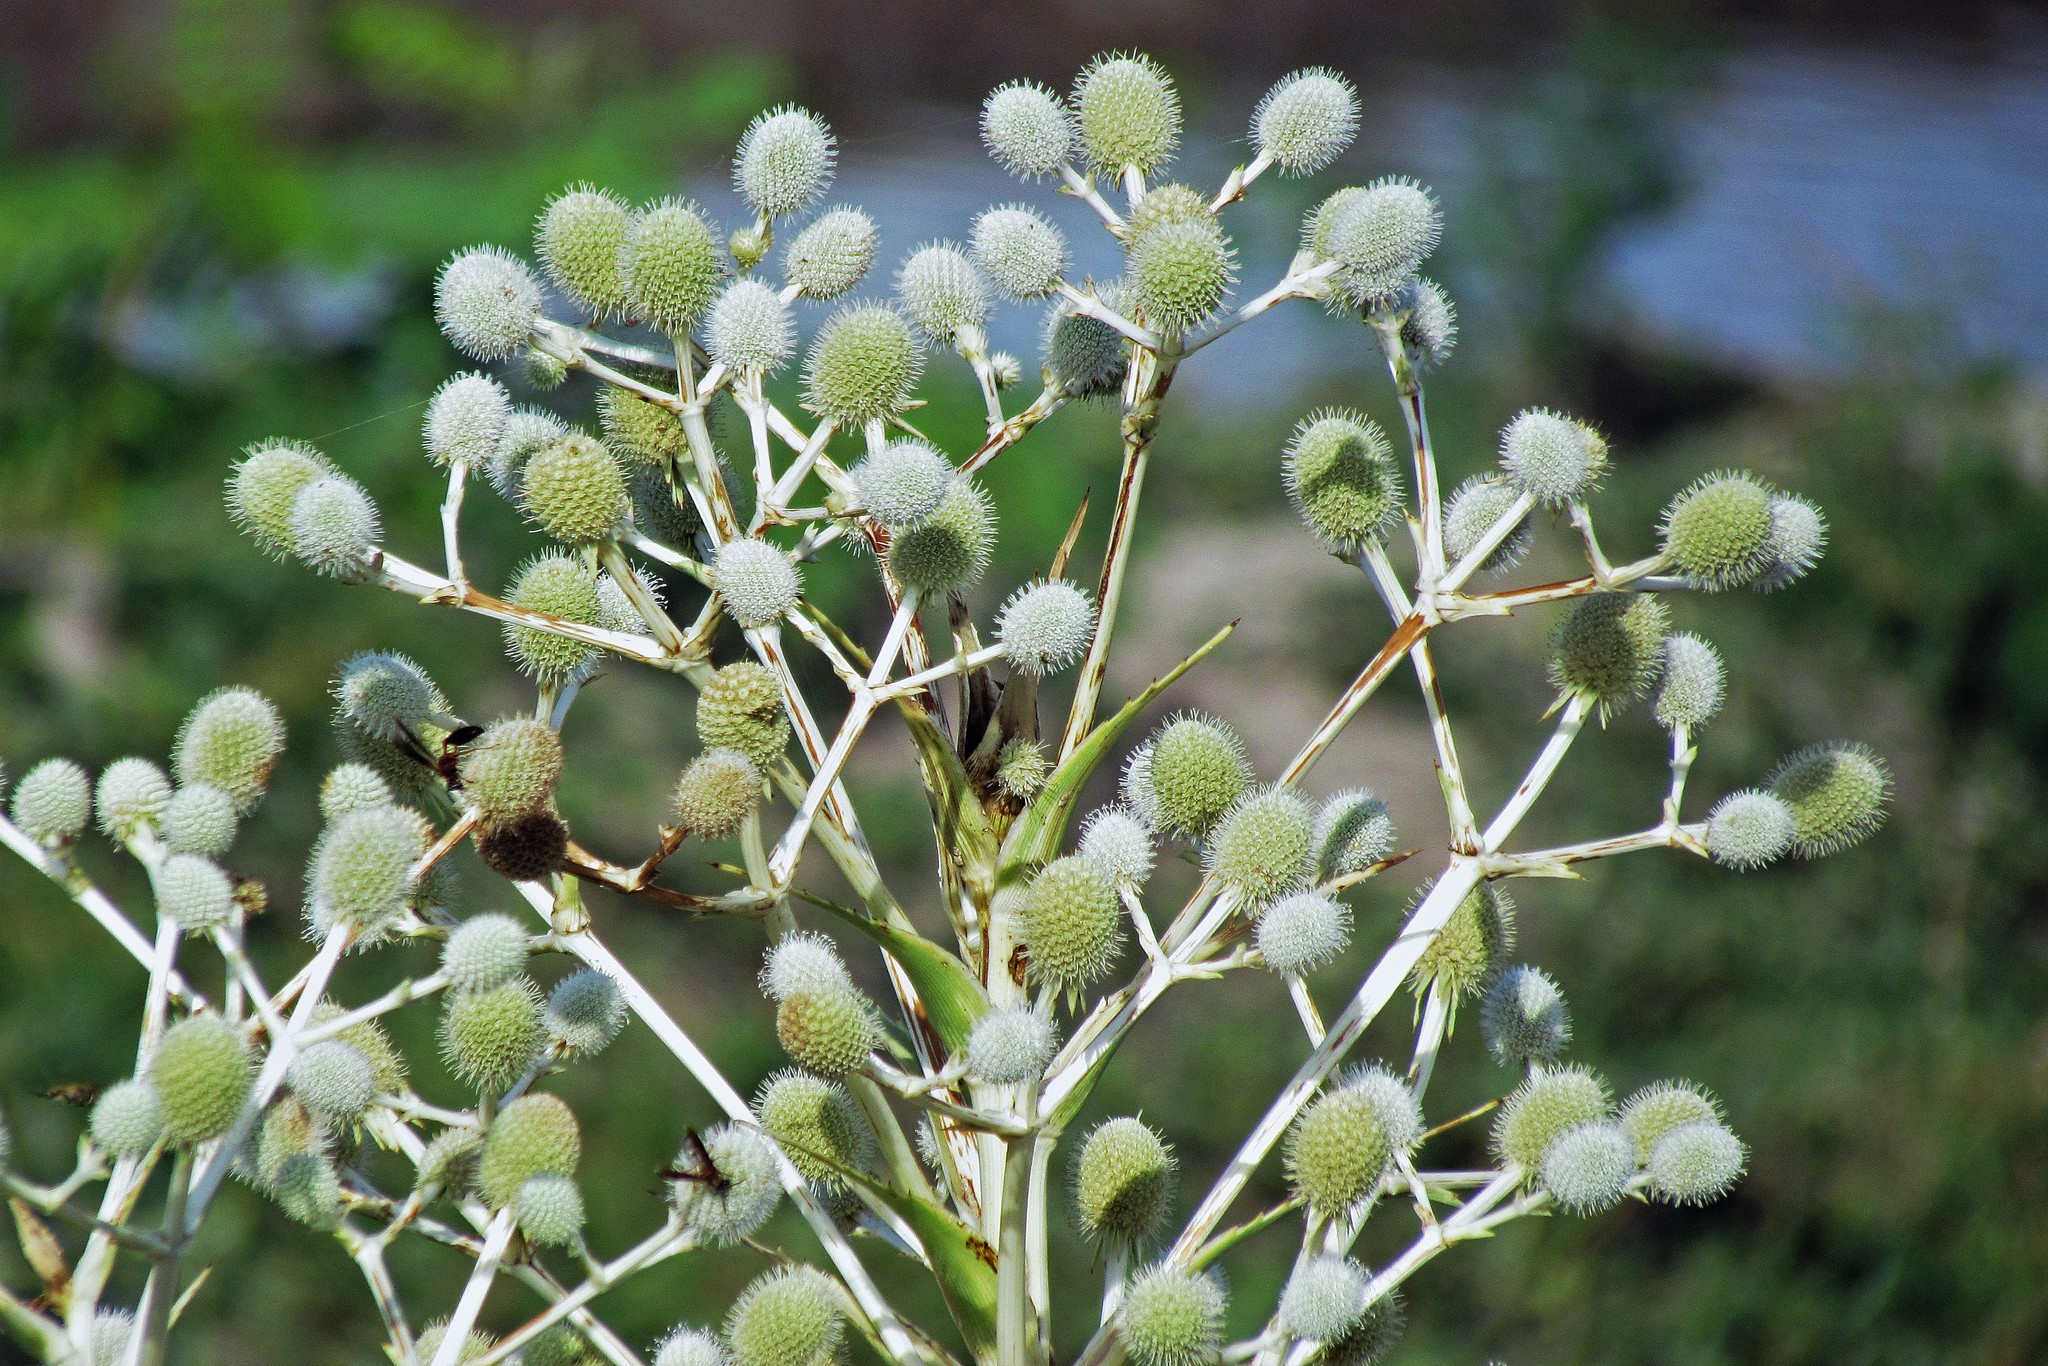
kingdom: Plantae
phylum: Tracheophyta
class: Magnoliopsida
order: Apiales
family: Apiaceae
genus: Eryngium
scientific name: Eryngium horridum
